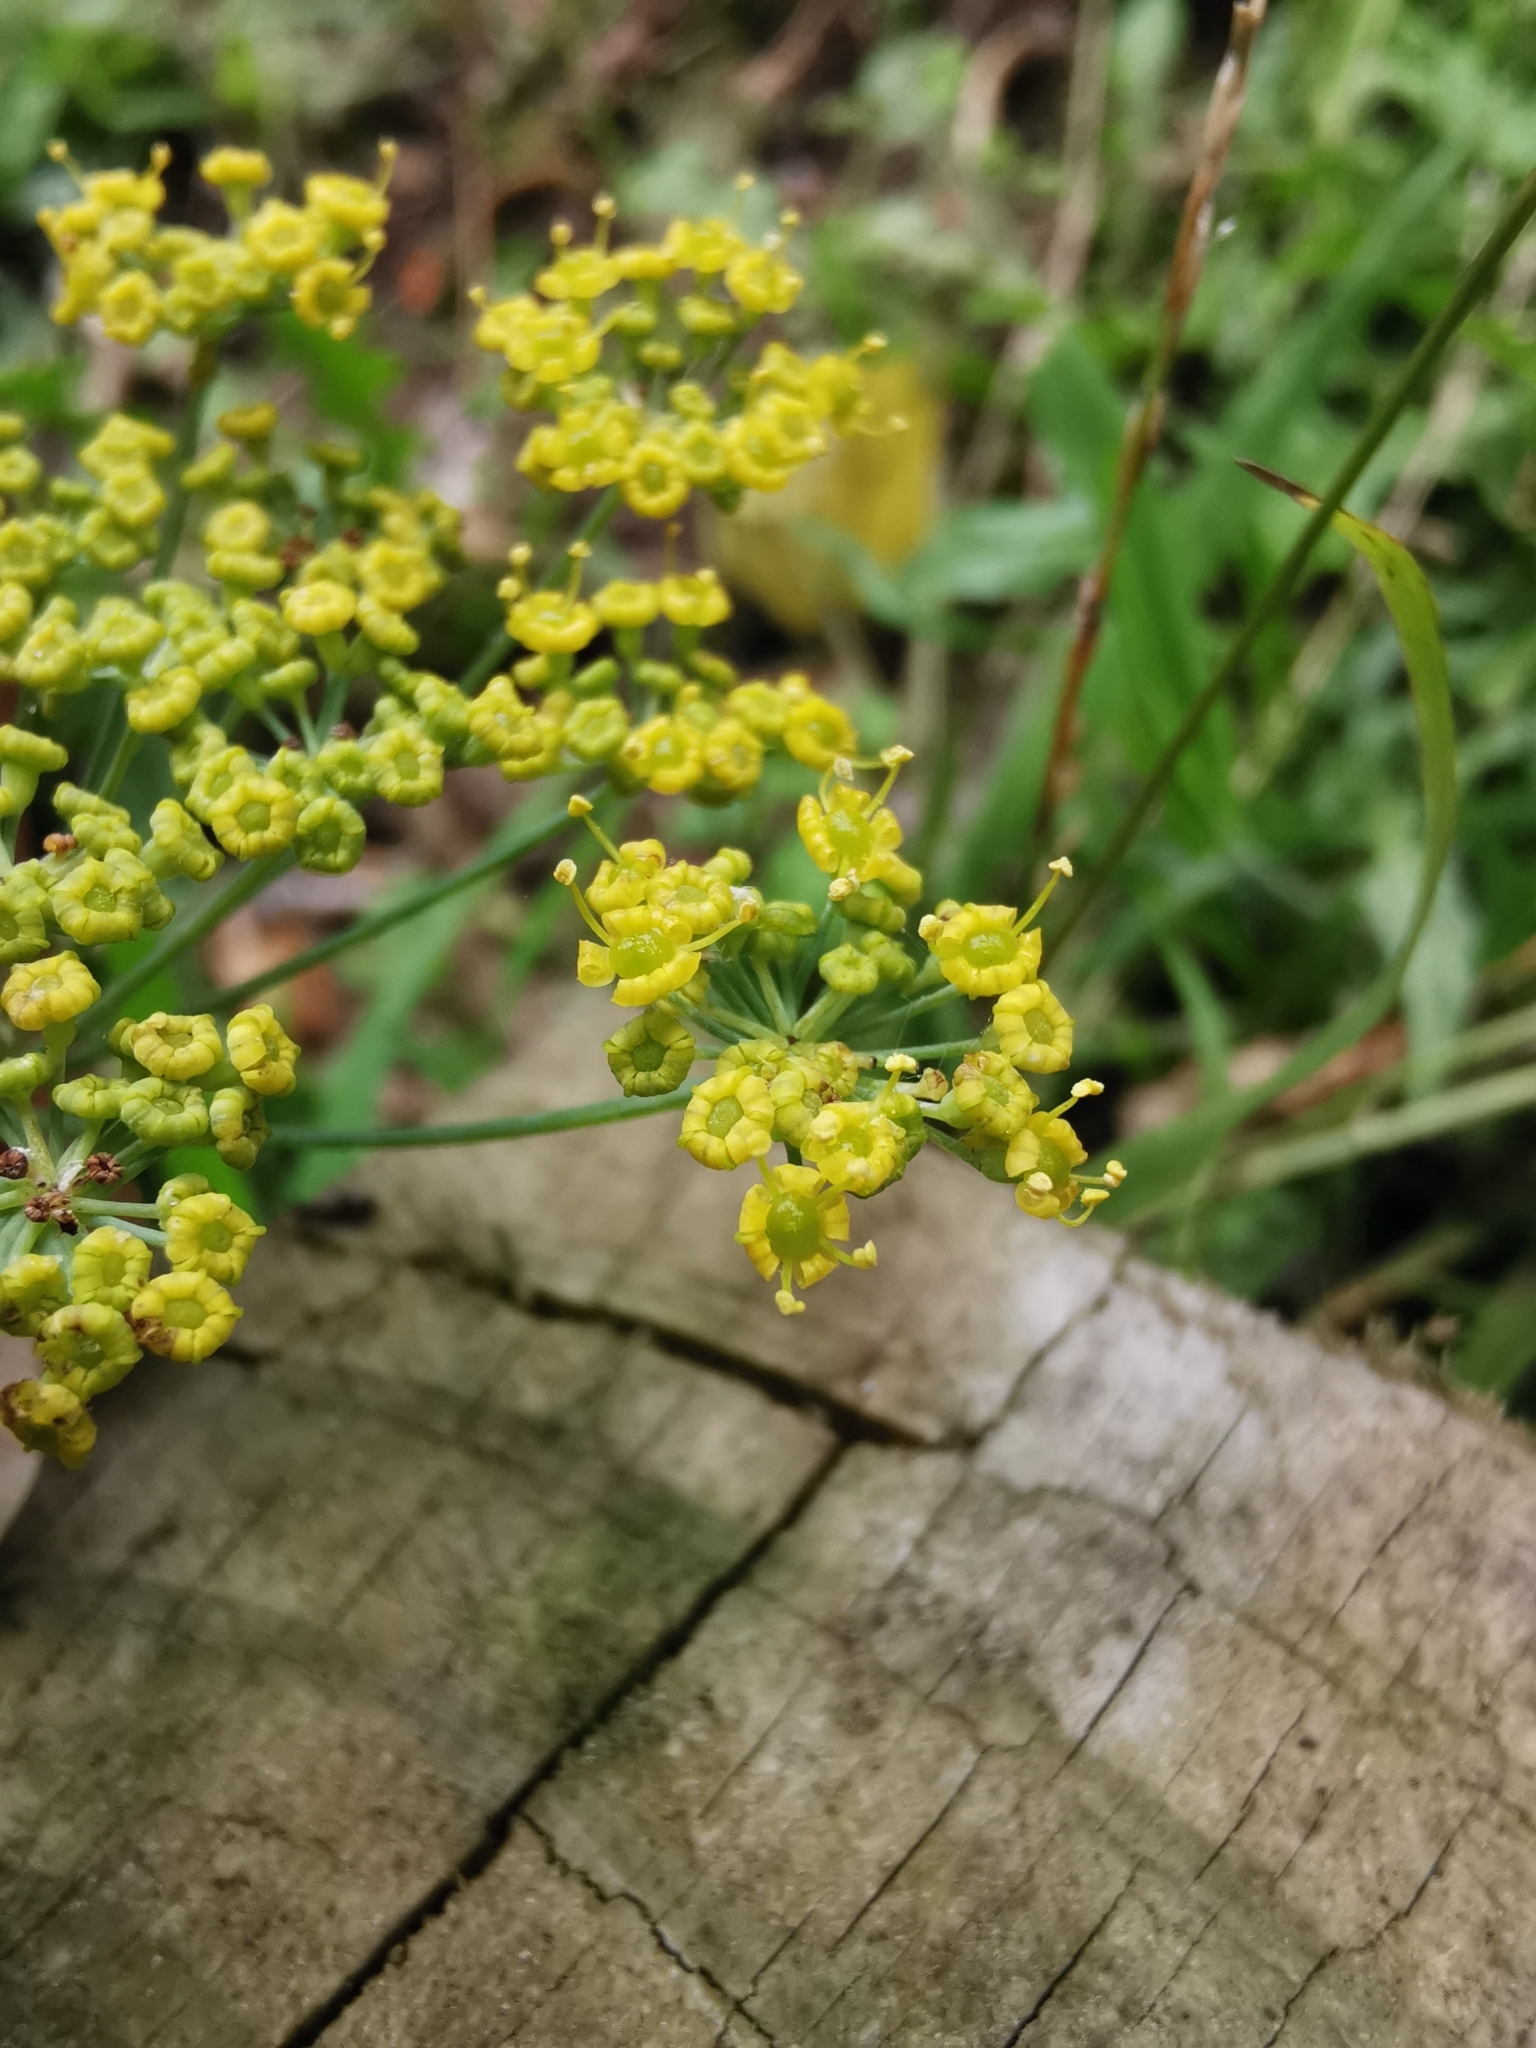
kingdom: Plantae
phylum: Tracheophyta
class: Magnoliopsida
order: Apiales
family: Apiaceae
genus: Foeniculum
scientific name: Foeniculum vulgare
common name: Fennel
